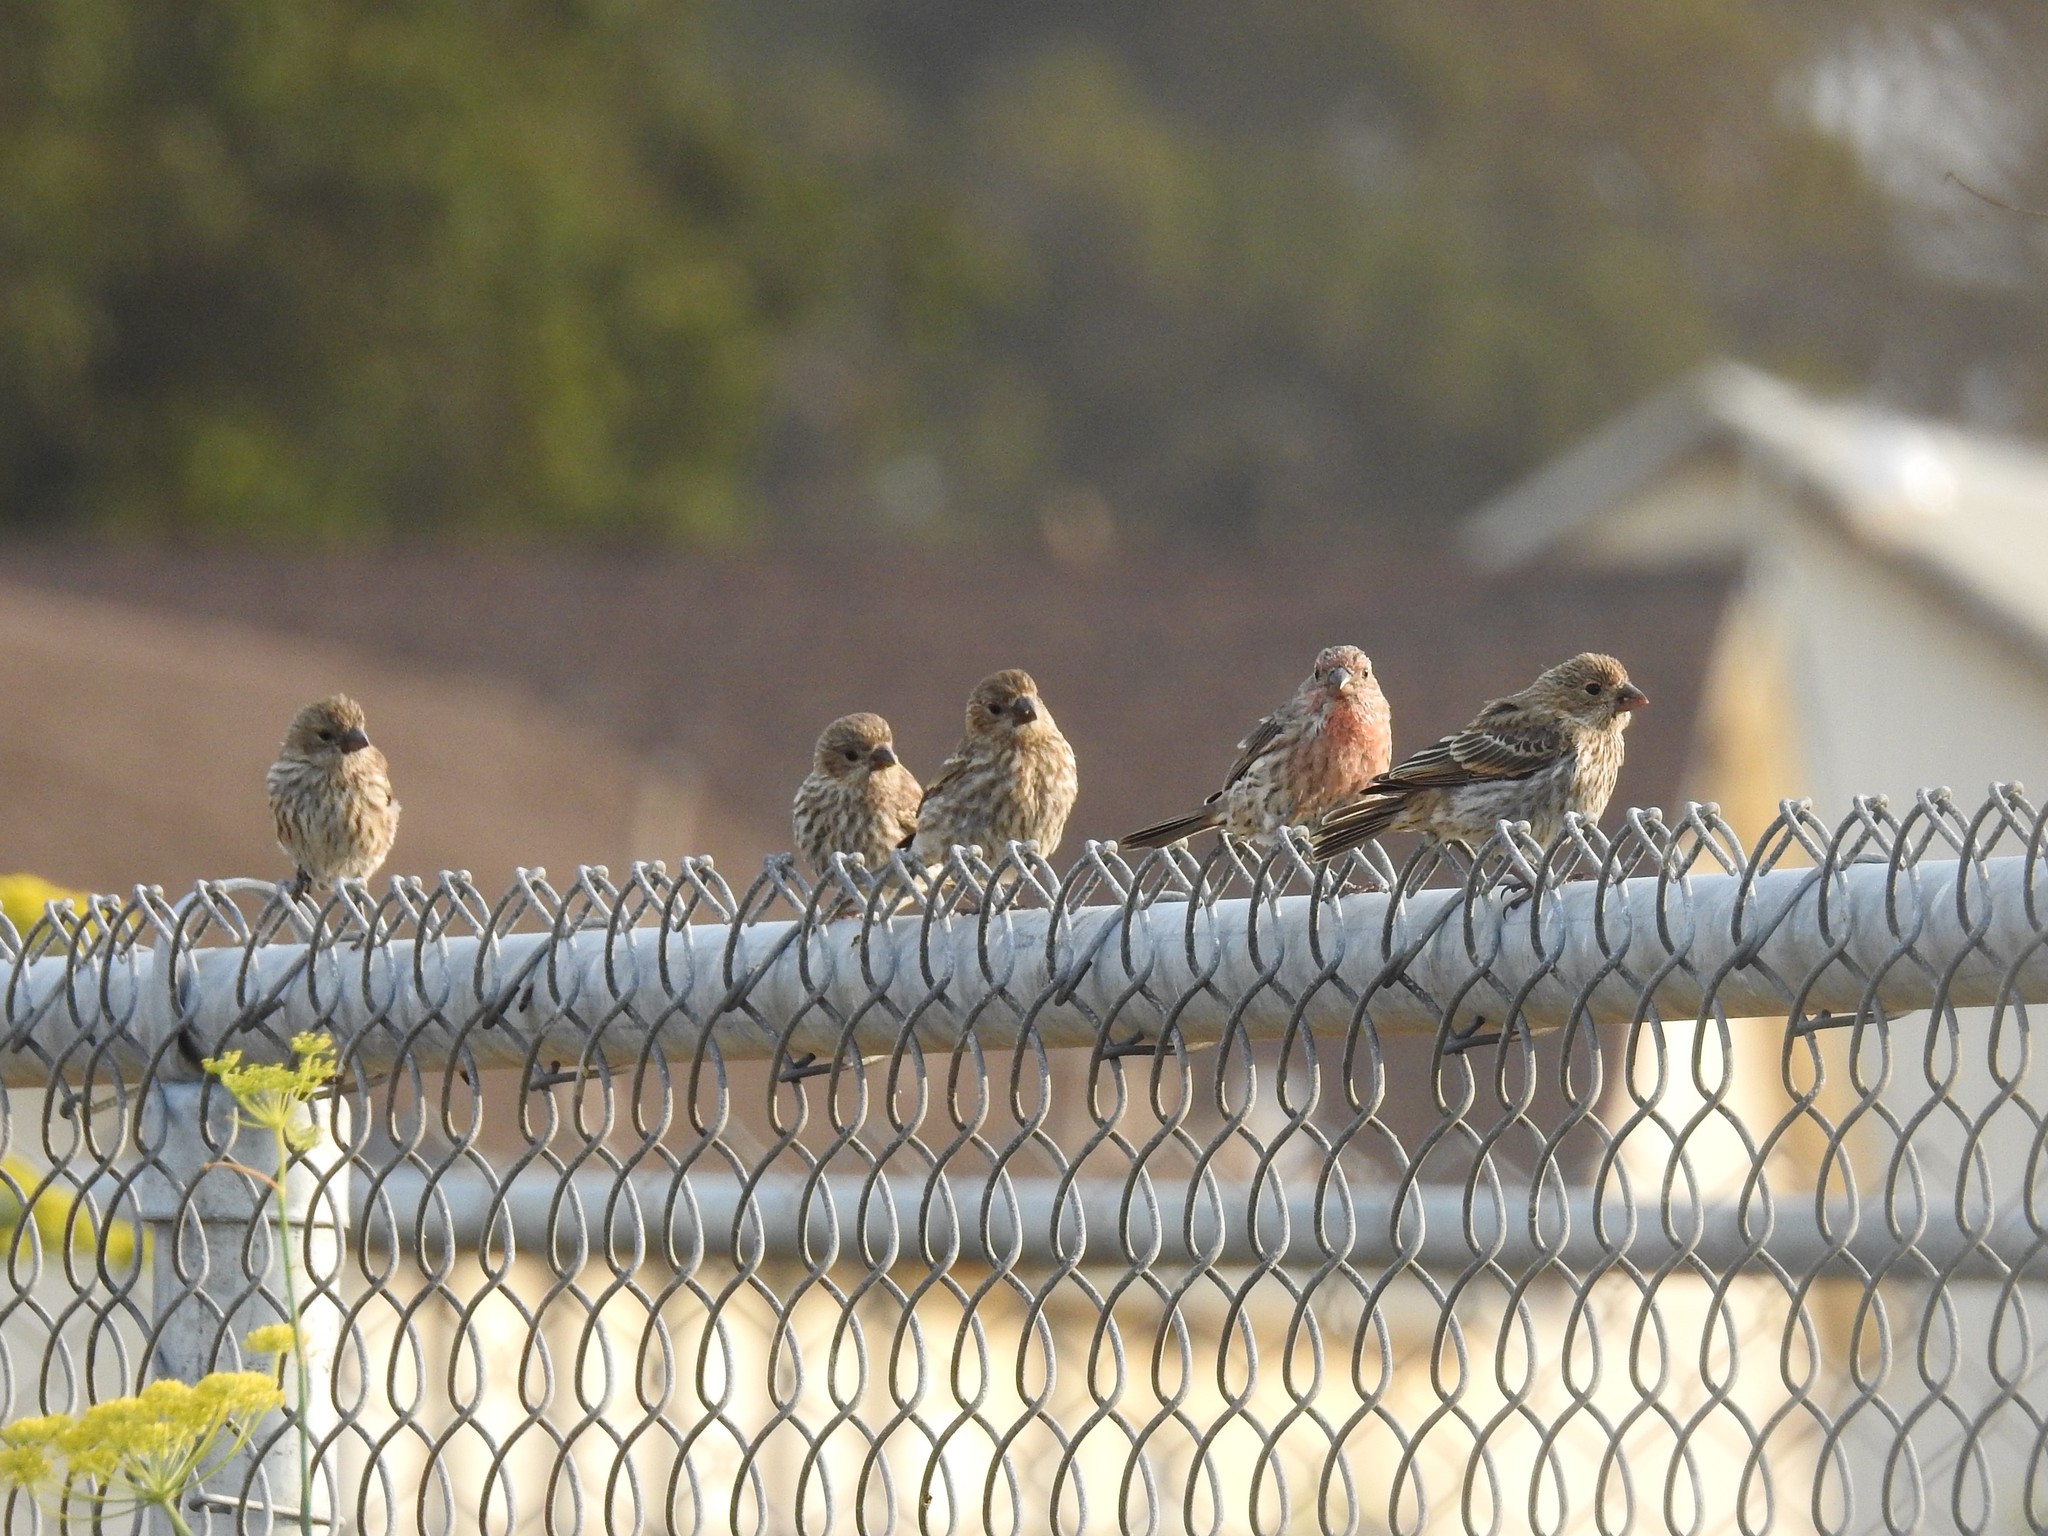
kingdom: Animalia
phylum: Chordata
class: Aves
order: Passeriformes
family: Fringillidae
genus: Haemorhous
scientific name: Haemorhous mexicanus
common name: House finch
